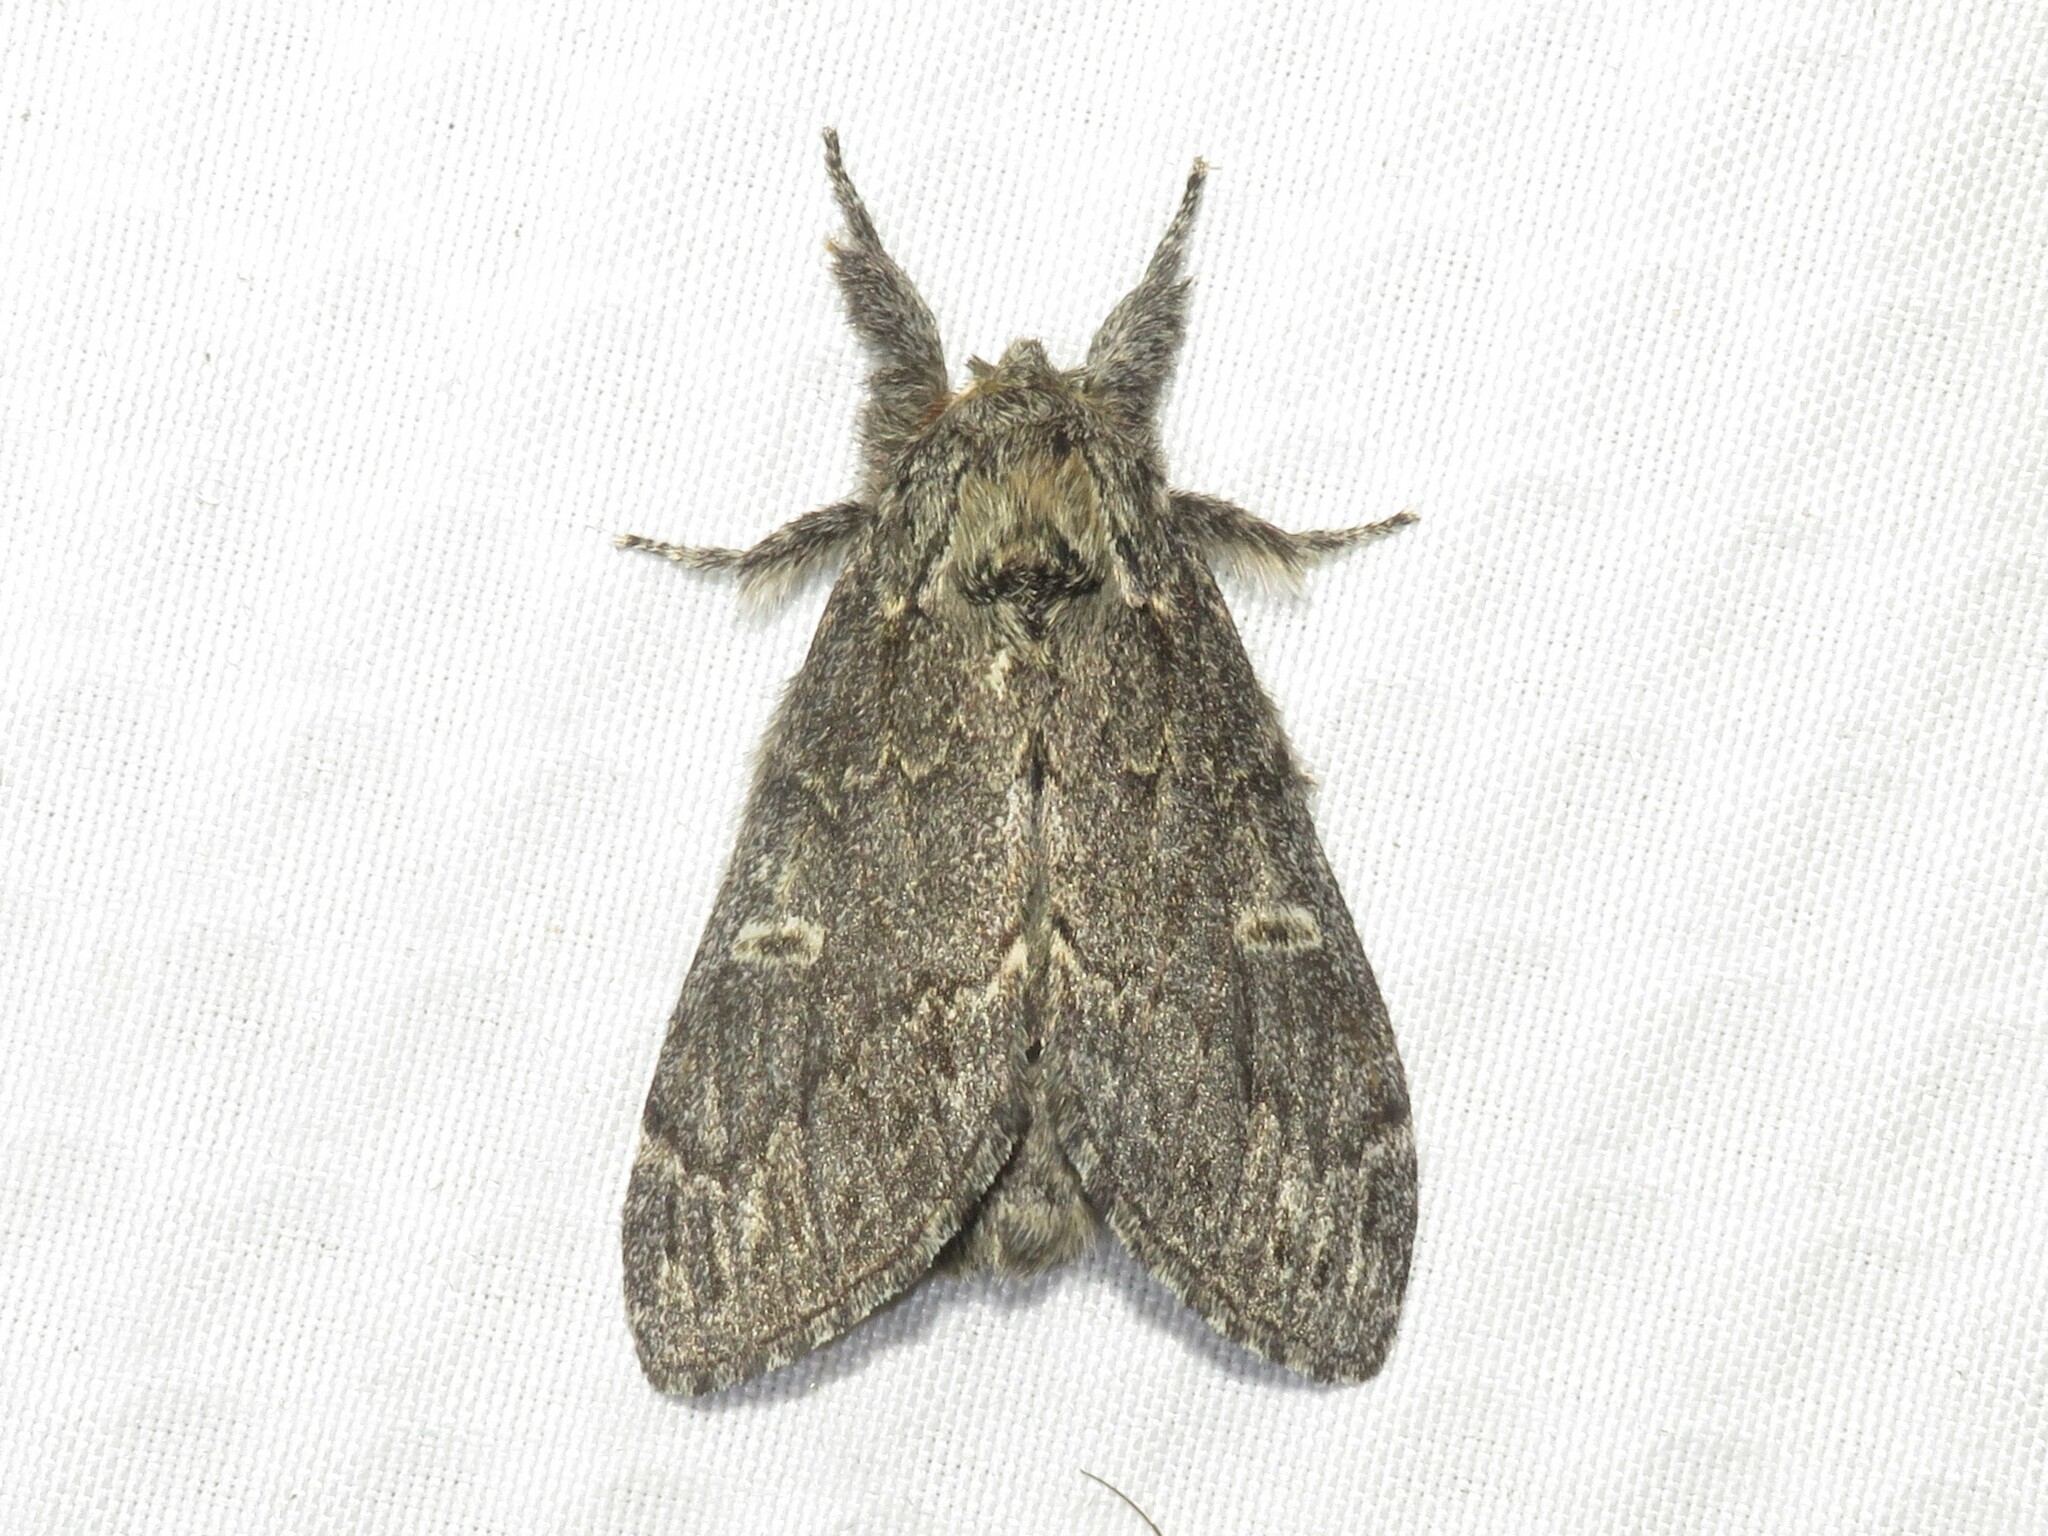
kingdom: Animalia
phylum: Arthropoda
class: Insecta
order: Lepidoptera
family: Notodontidae
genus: Notodonta
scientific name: Notodonta torva
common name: Large dark prominent
